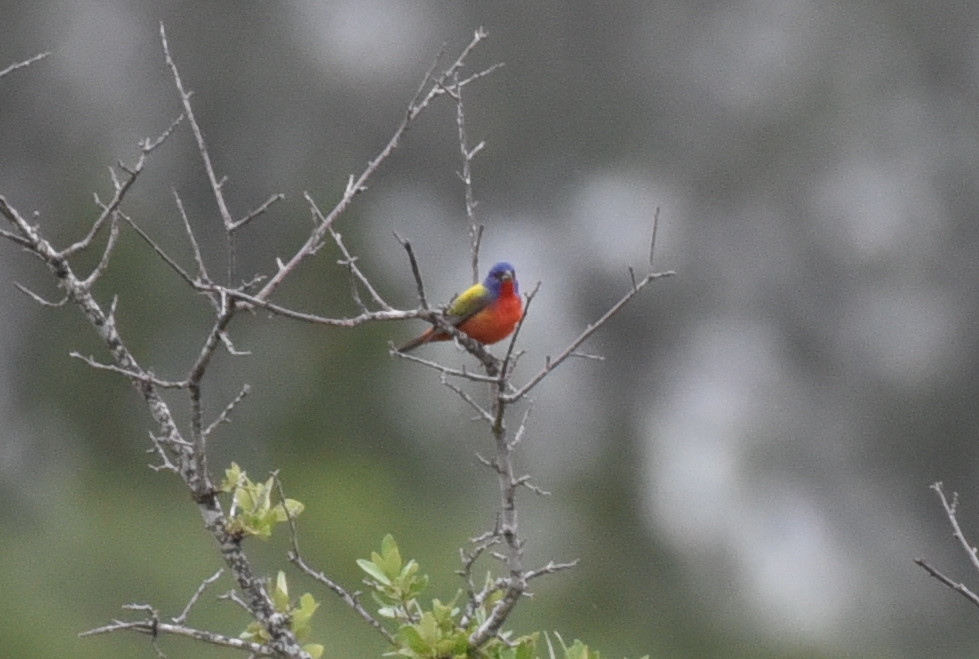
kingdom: Animalia
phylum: Chordata
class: Aves
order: Passeriformes
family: Cardinalidae
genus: Passerina
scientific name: Passerina ciris
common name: Painted bunting
